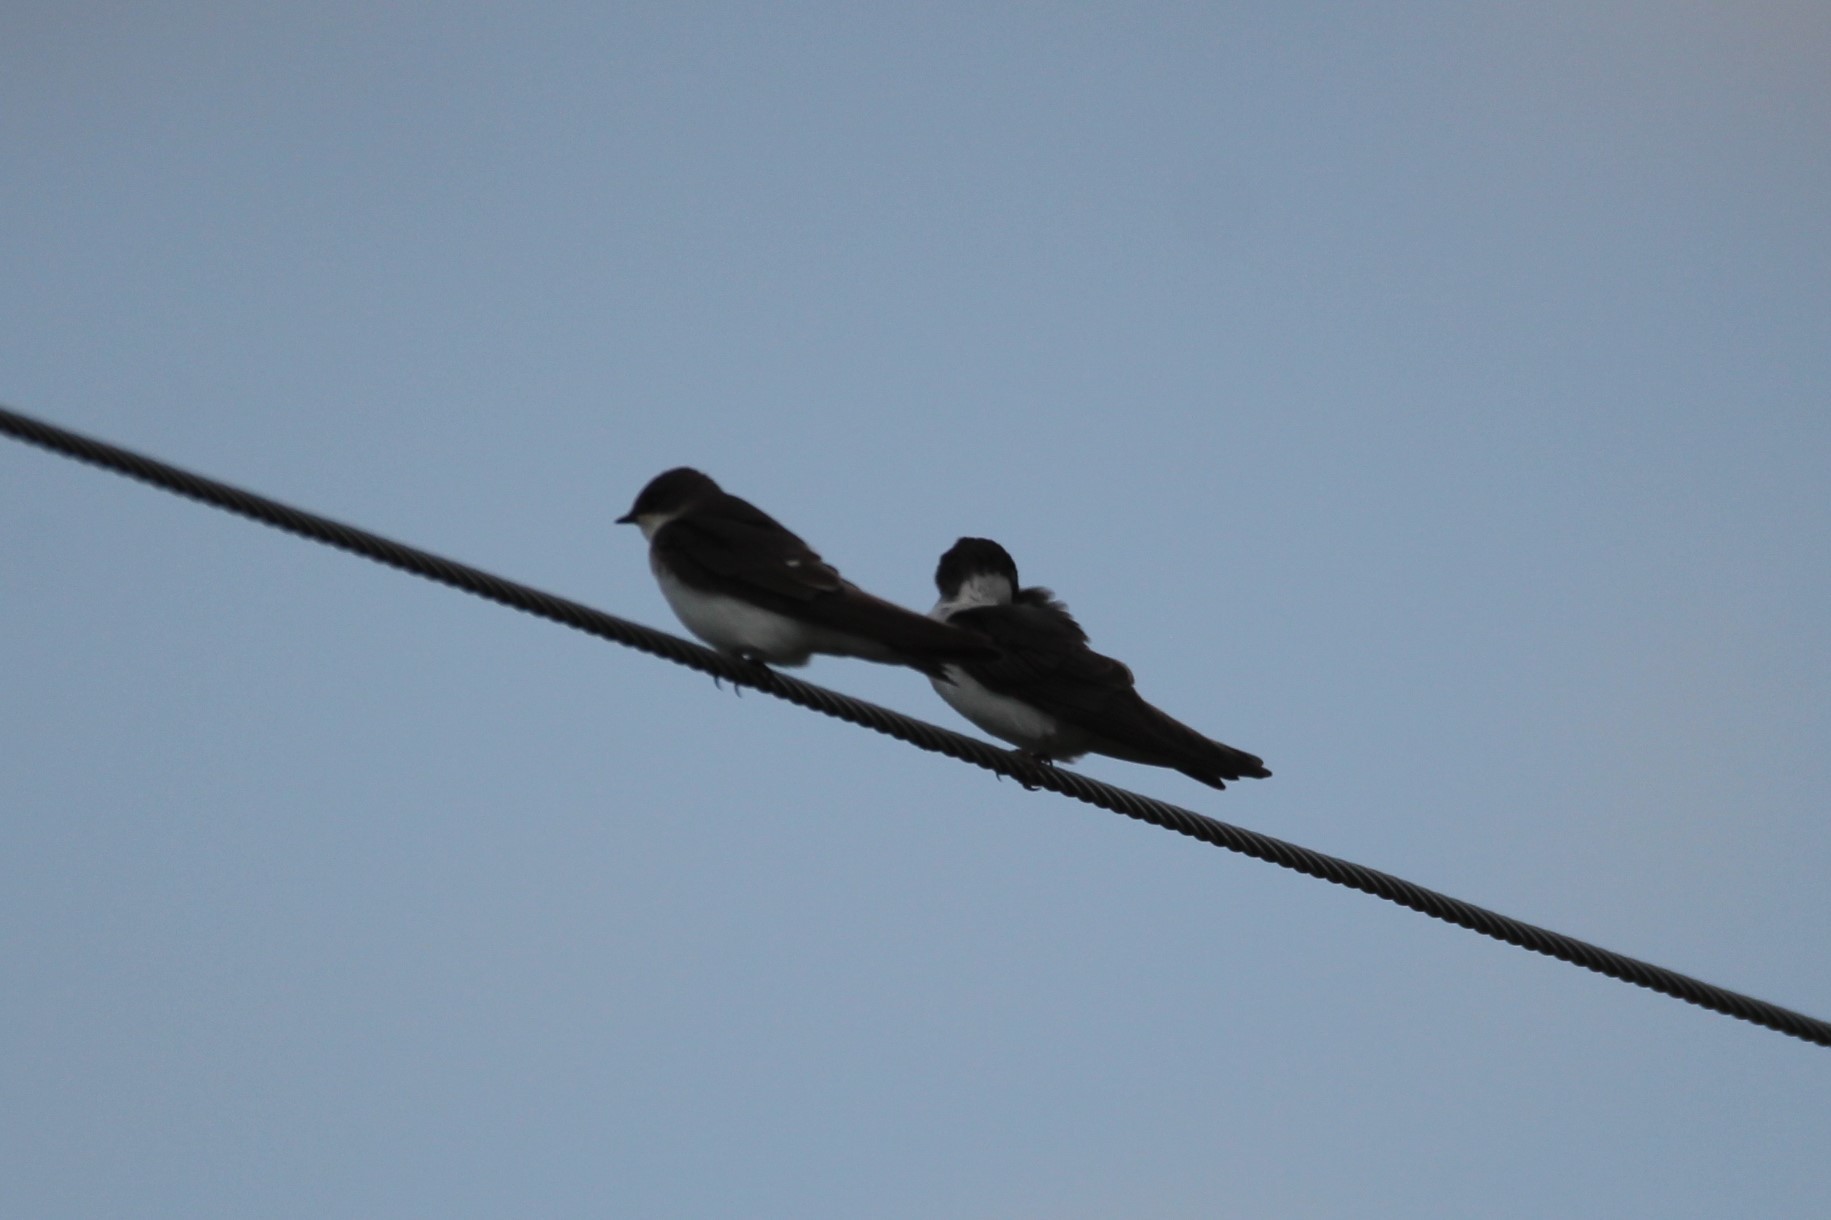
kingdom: Animalia
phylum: Chordata
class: Aves
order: Passeriformes
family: Hirundinidae
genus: Tachycineta
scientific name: Tachycineta bicolor
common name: Tree swallow
